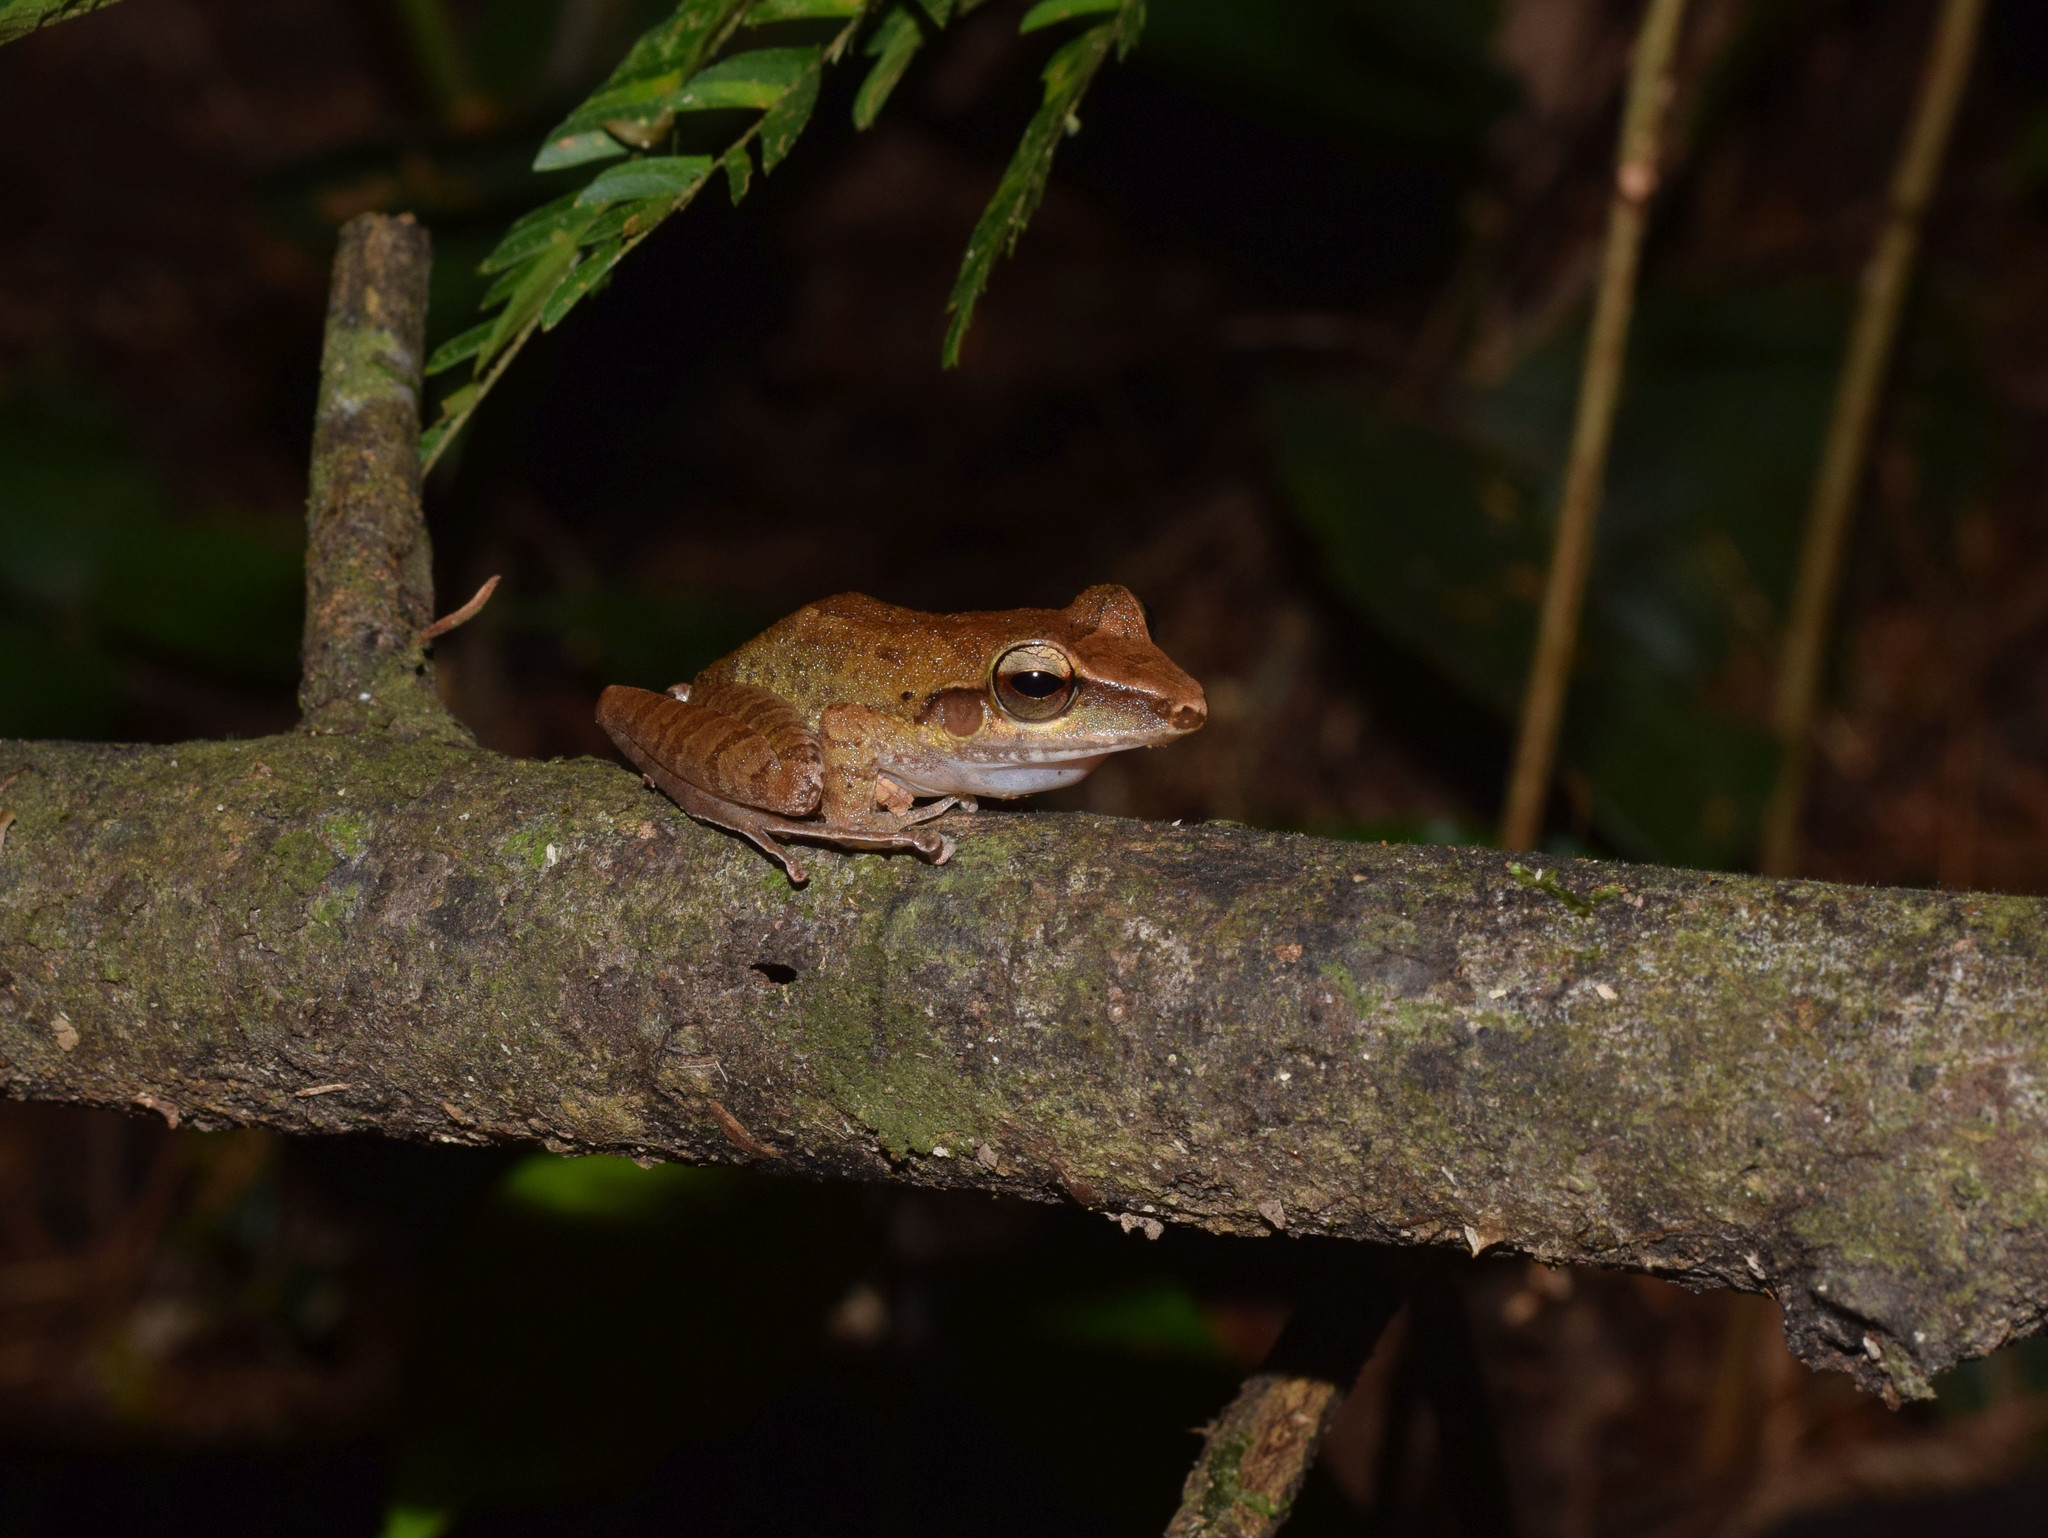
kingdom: Animalia
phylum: Chordata
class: Amphibia
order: Anura
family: Craugastoridae
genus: Craugastor
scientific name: Craugastor talamancae
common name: Almirante robber frog
